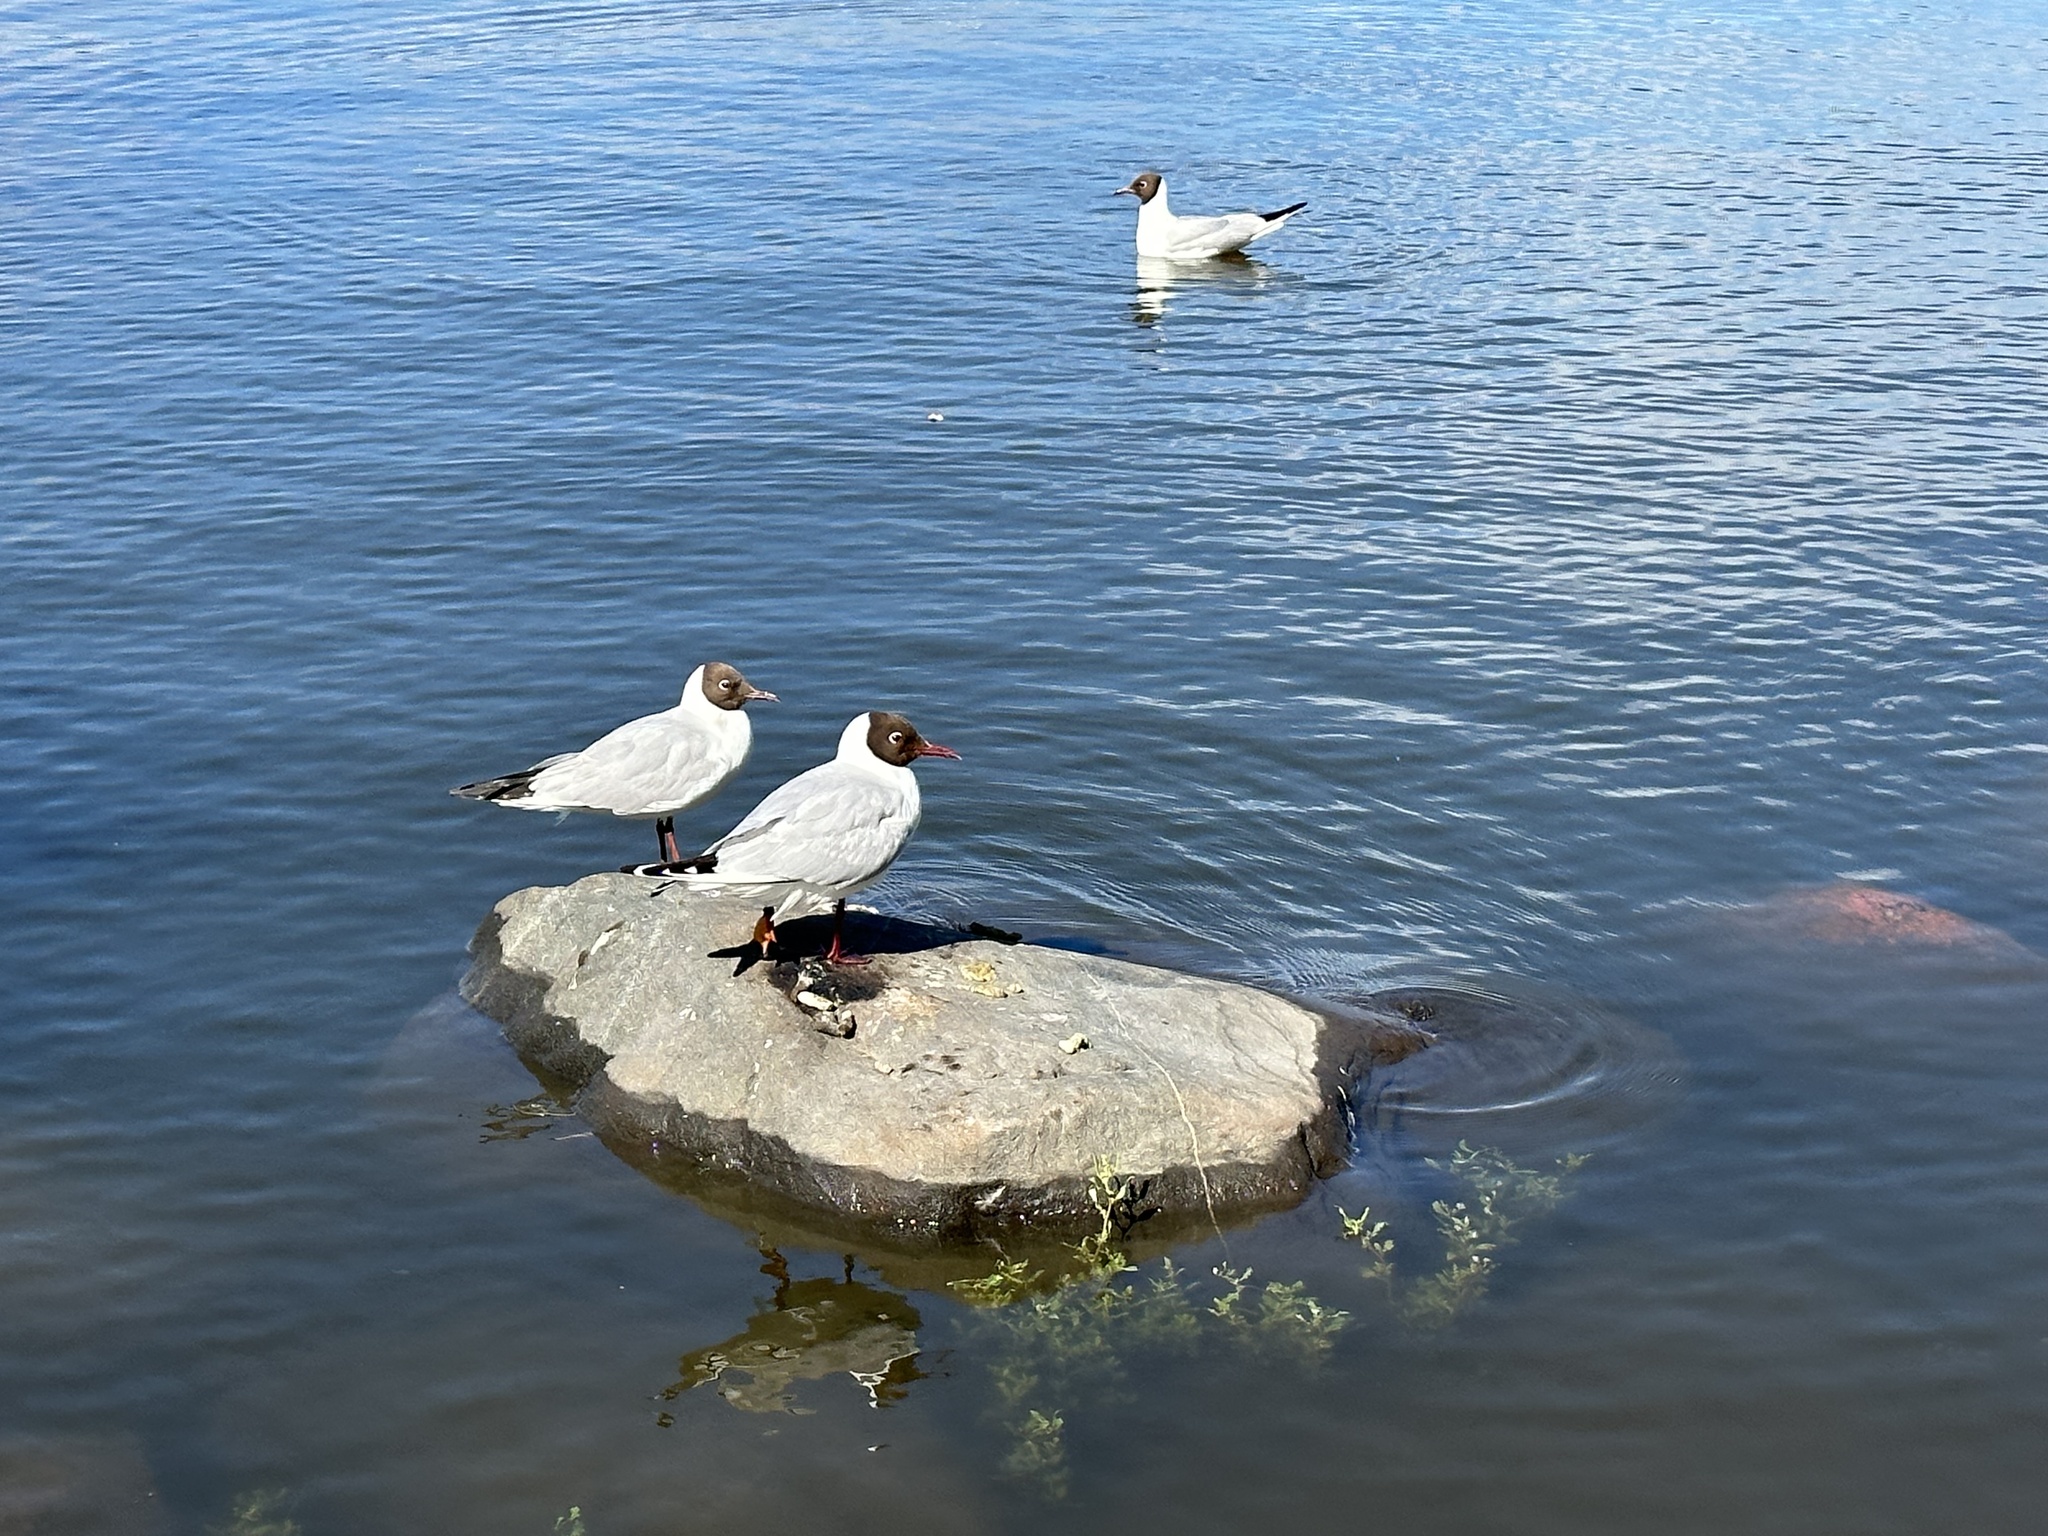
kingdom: Animalia
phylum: Chordata
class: Aves
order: Charadriiformes
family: Laridae
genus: Chroicocephalus
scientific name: Chroicocephalus ridibundus
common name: Black-headed gull
